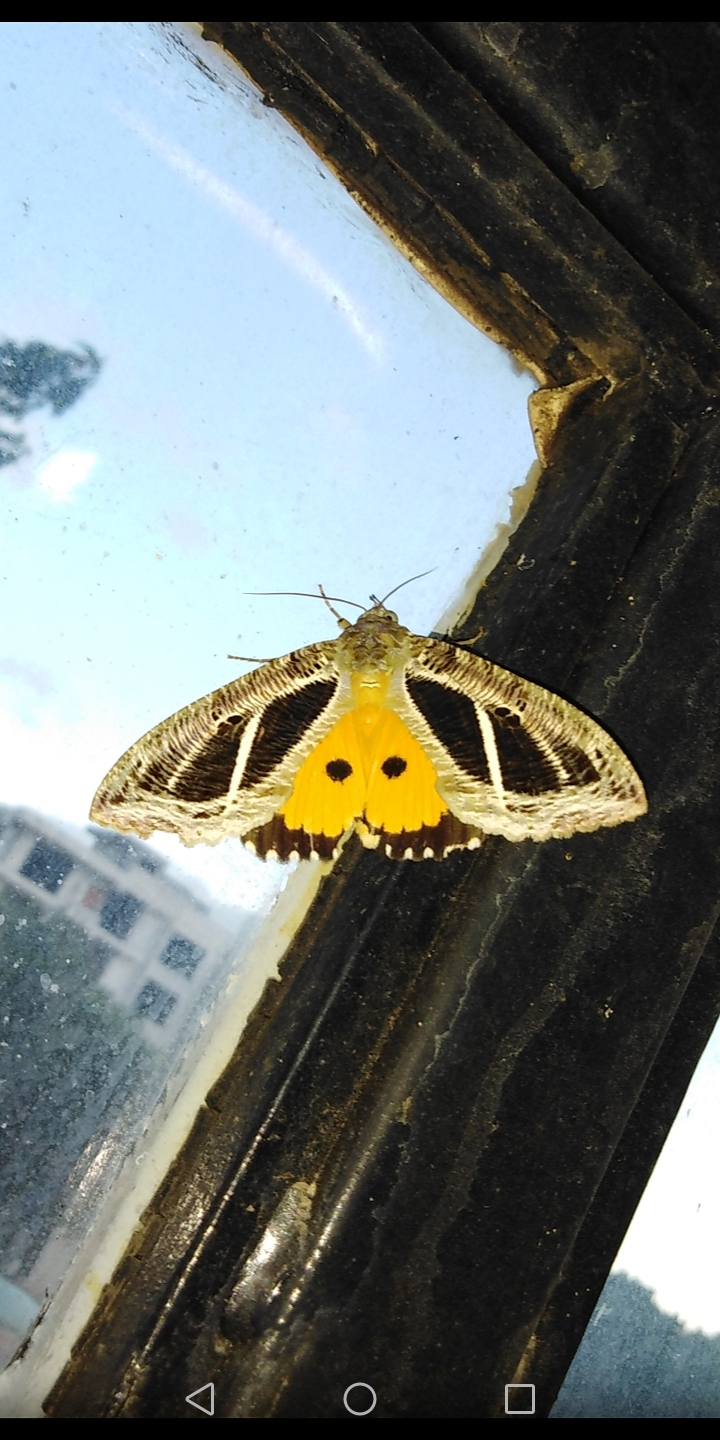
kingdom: Animalia
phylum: Arthropoda
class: Insecta
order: Lepidoptera
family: Erebidae
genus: Eudocima
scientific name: Eudocima materna
